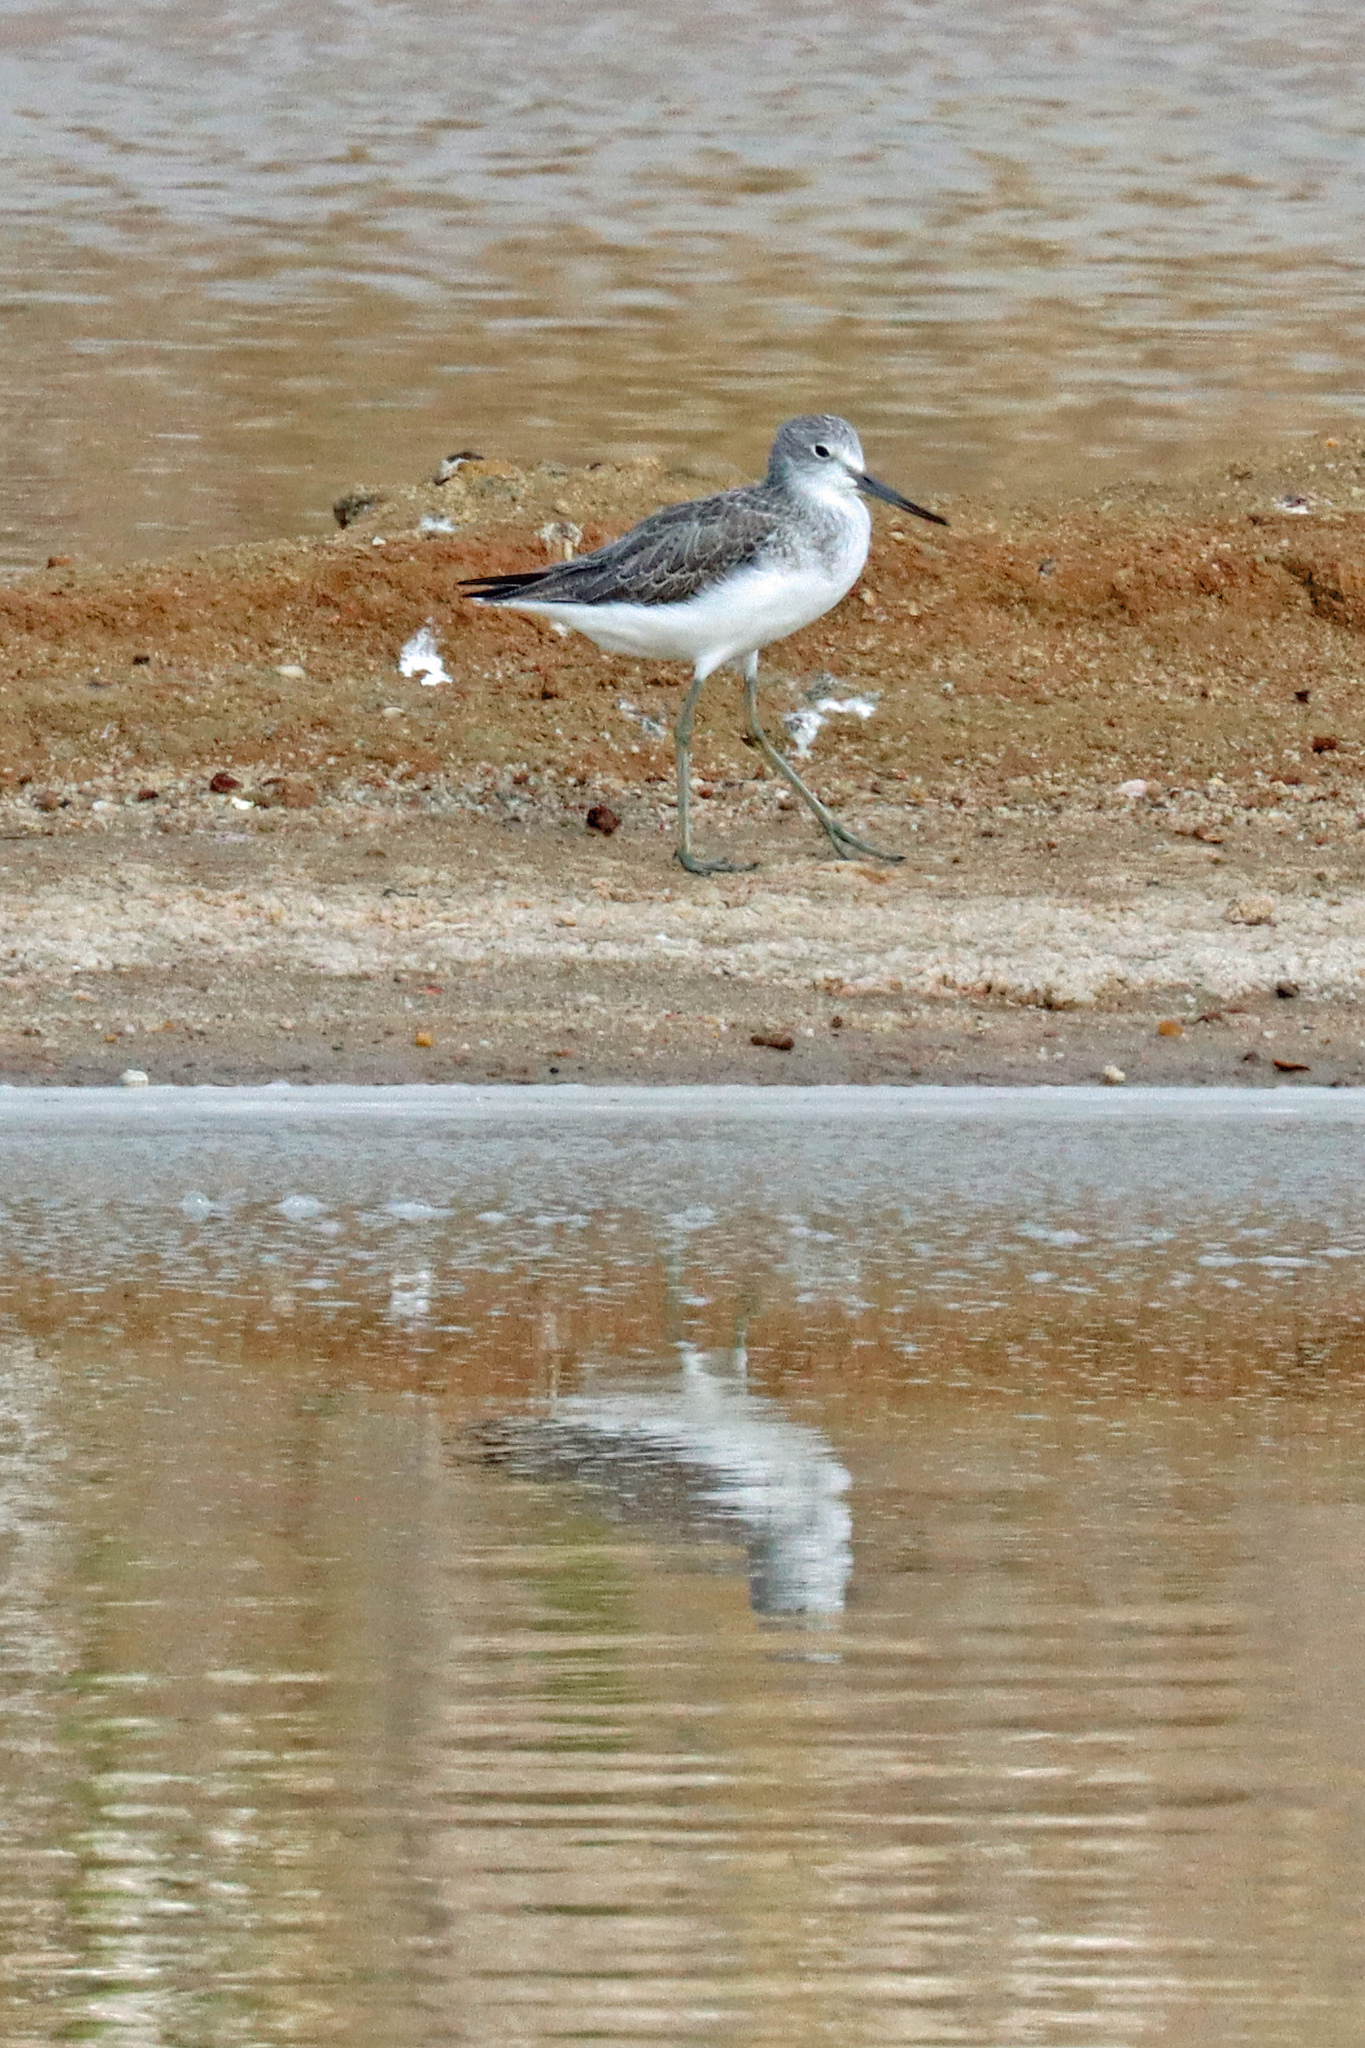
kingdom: Animalia
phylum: Chordata
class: Aves
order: Charadriiformes
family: Scolopacidae
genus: Tringa
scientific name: Tringa nebularia
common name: Common greenshank
